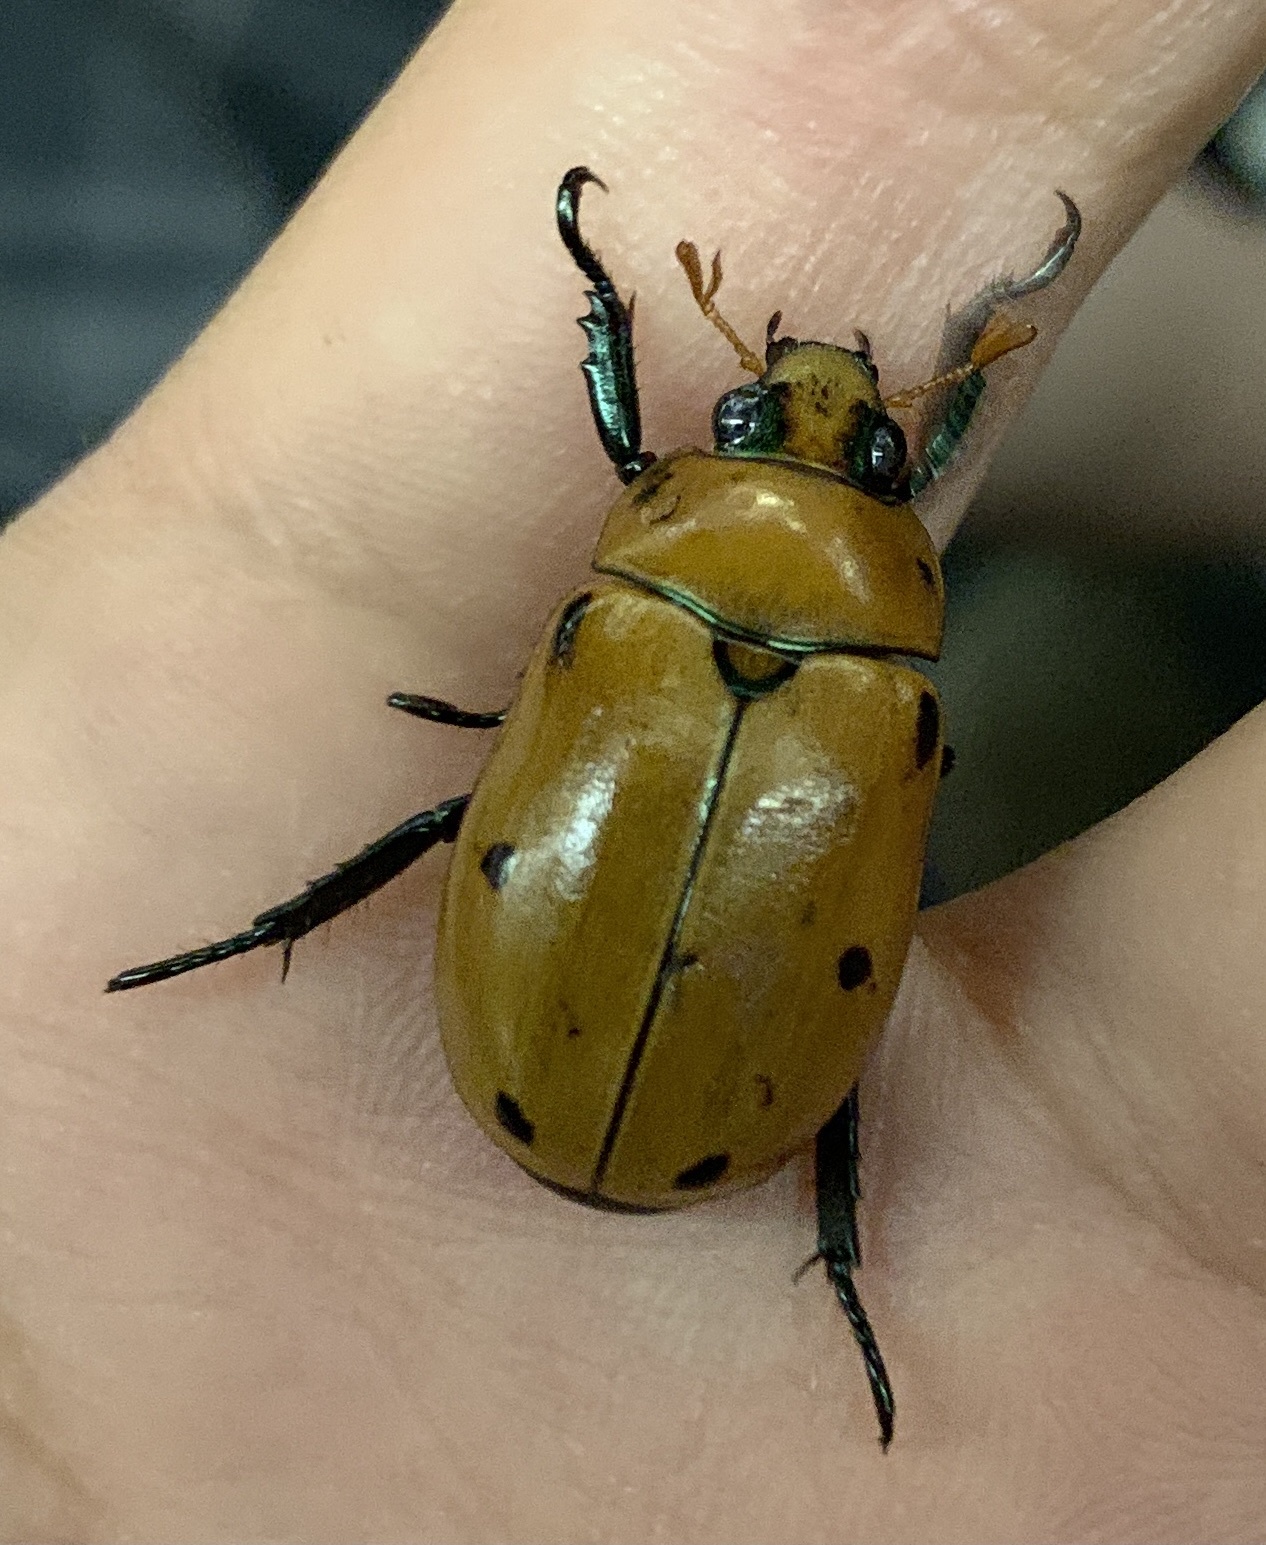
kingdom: Animalia
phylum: Arthropoda
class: Insecta
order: Coleoptera
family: Scarabaeidae
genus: Pelidnota
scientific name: Pelidnota punctata
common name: Grapevine beetle
